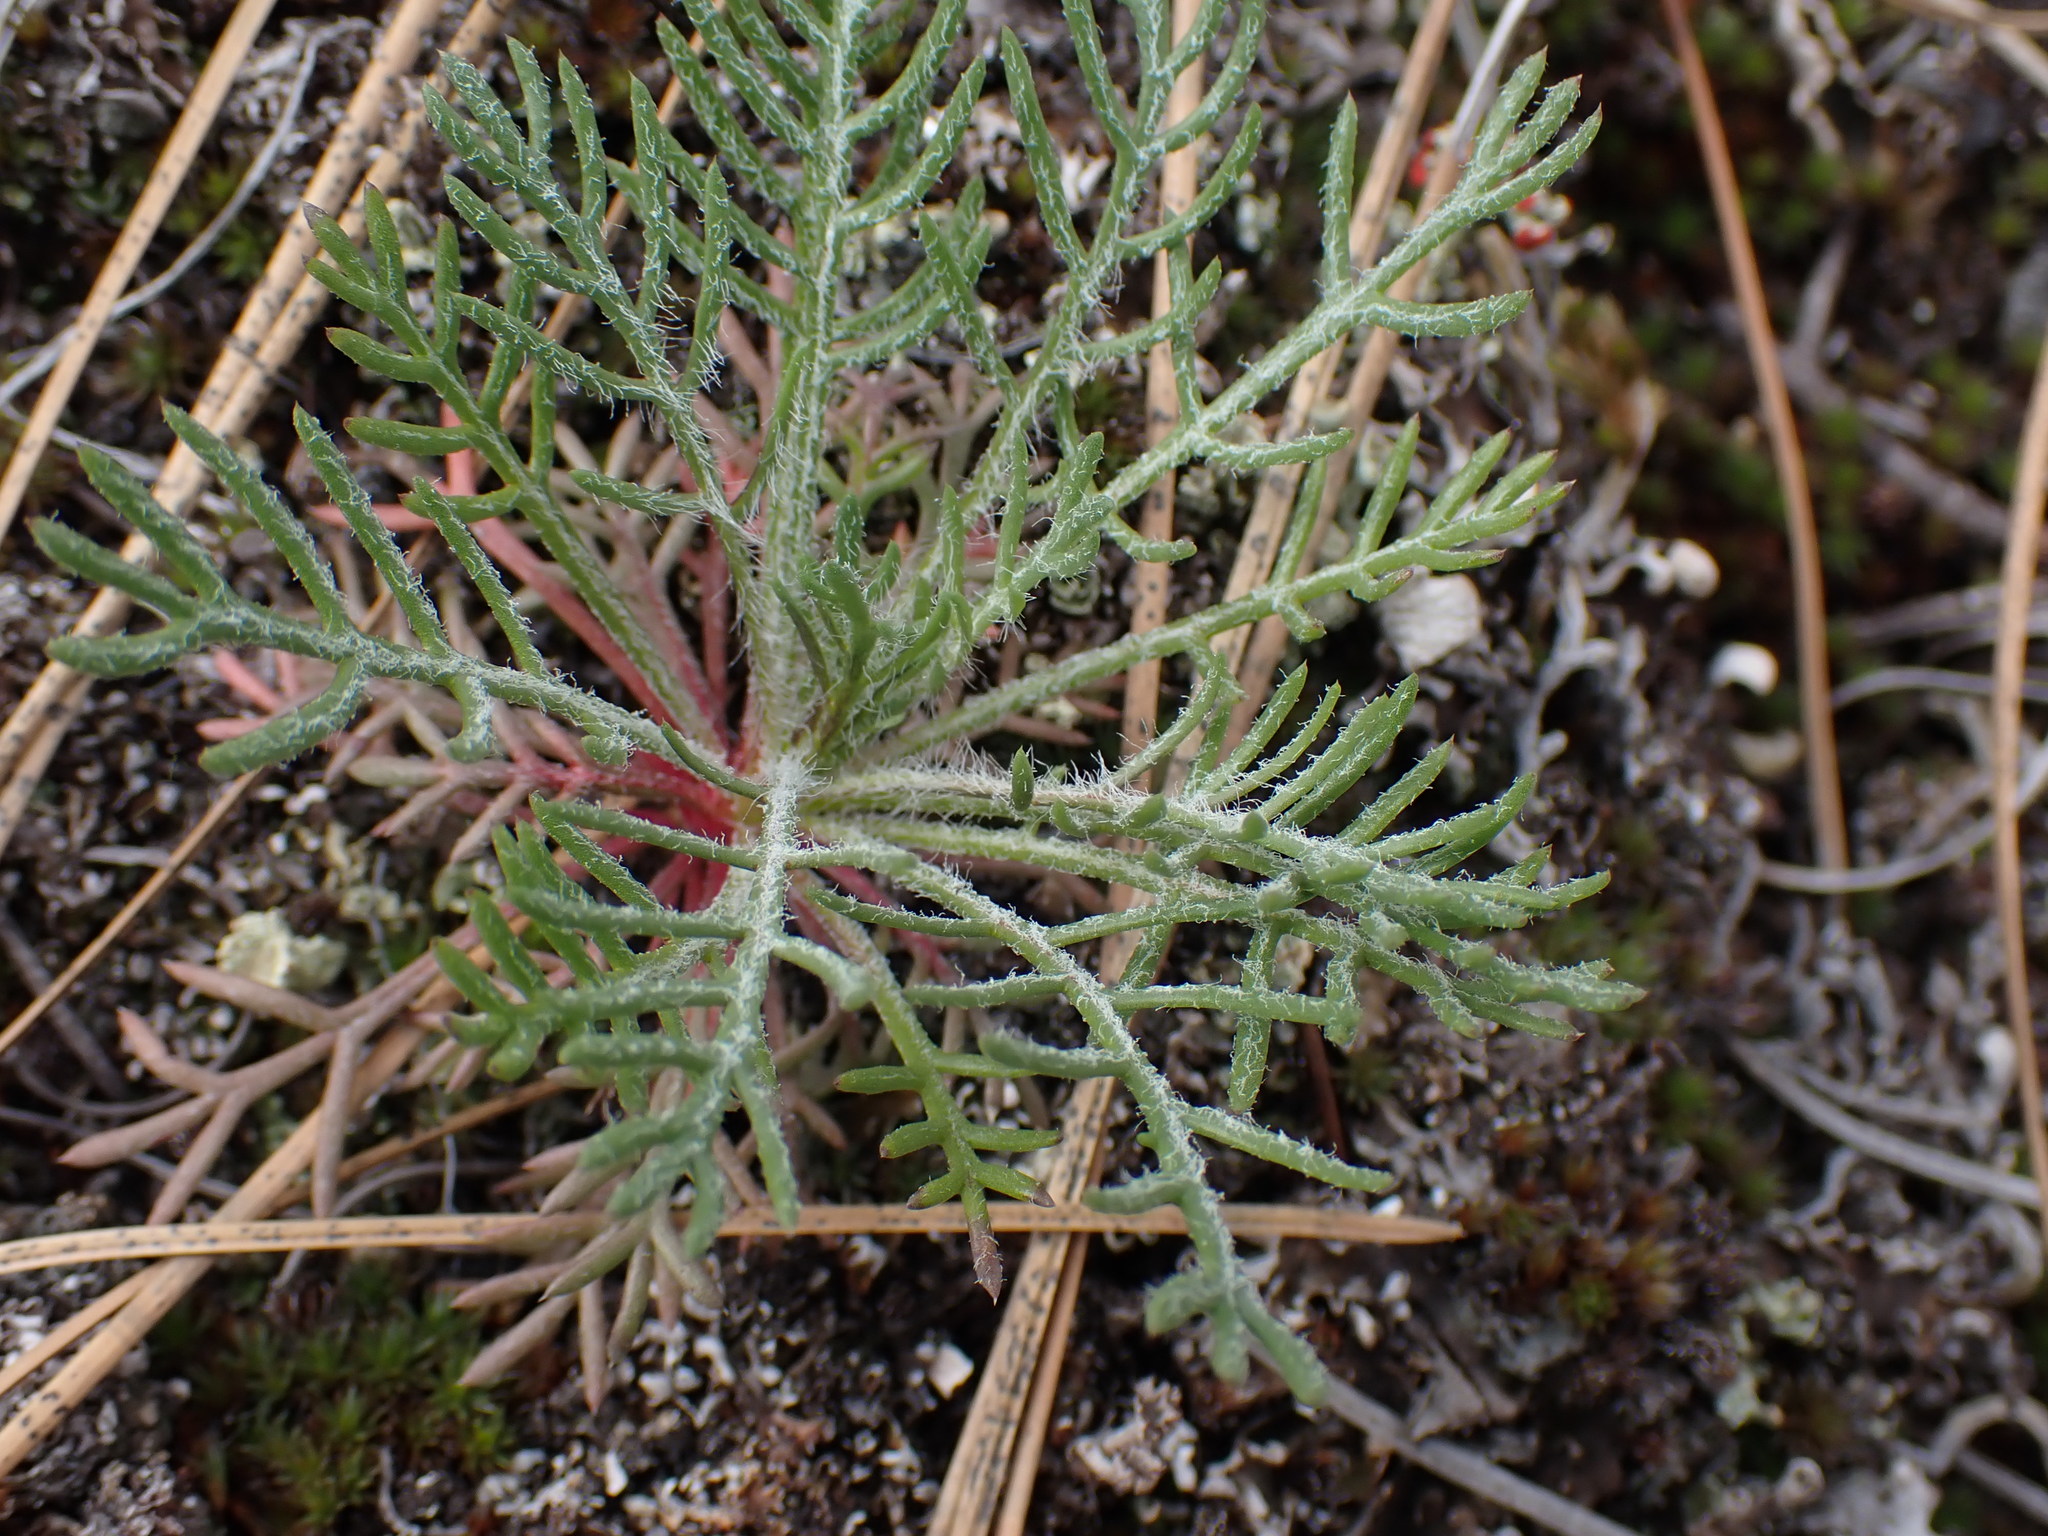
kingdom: Plantae
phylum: Tracheophyta
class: Magnoliopsida
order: Ericales
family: Polemoniaceae
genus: Ipomopsis
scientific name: Ipomopsis aggregata
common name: Scarlet gilia
